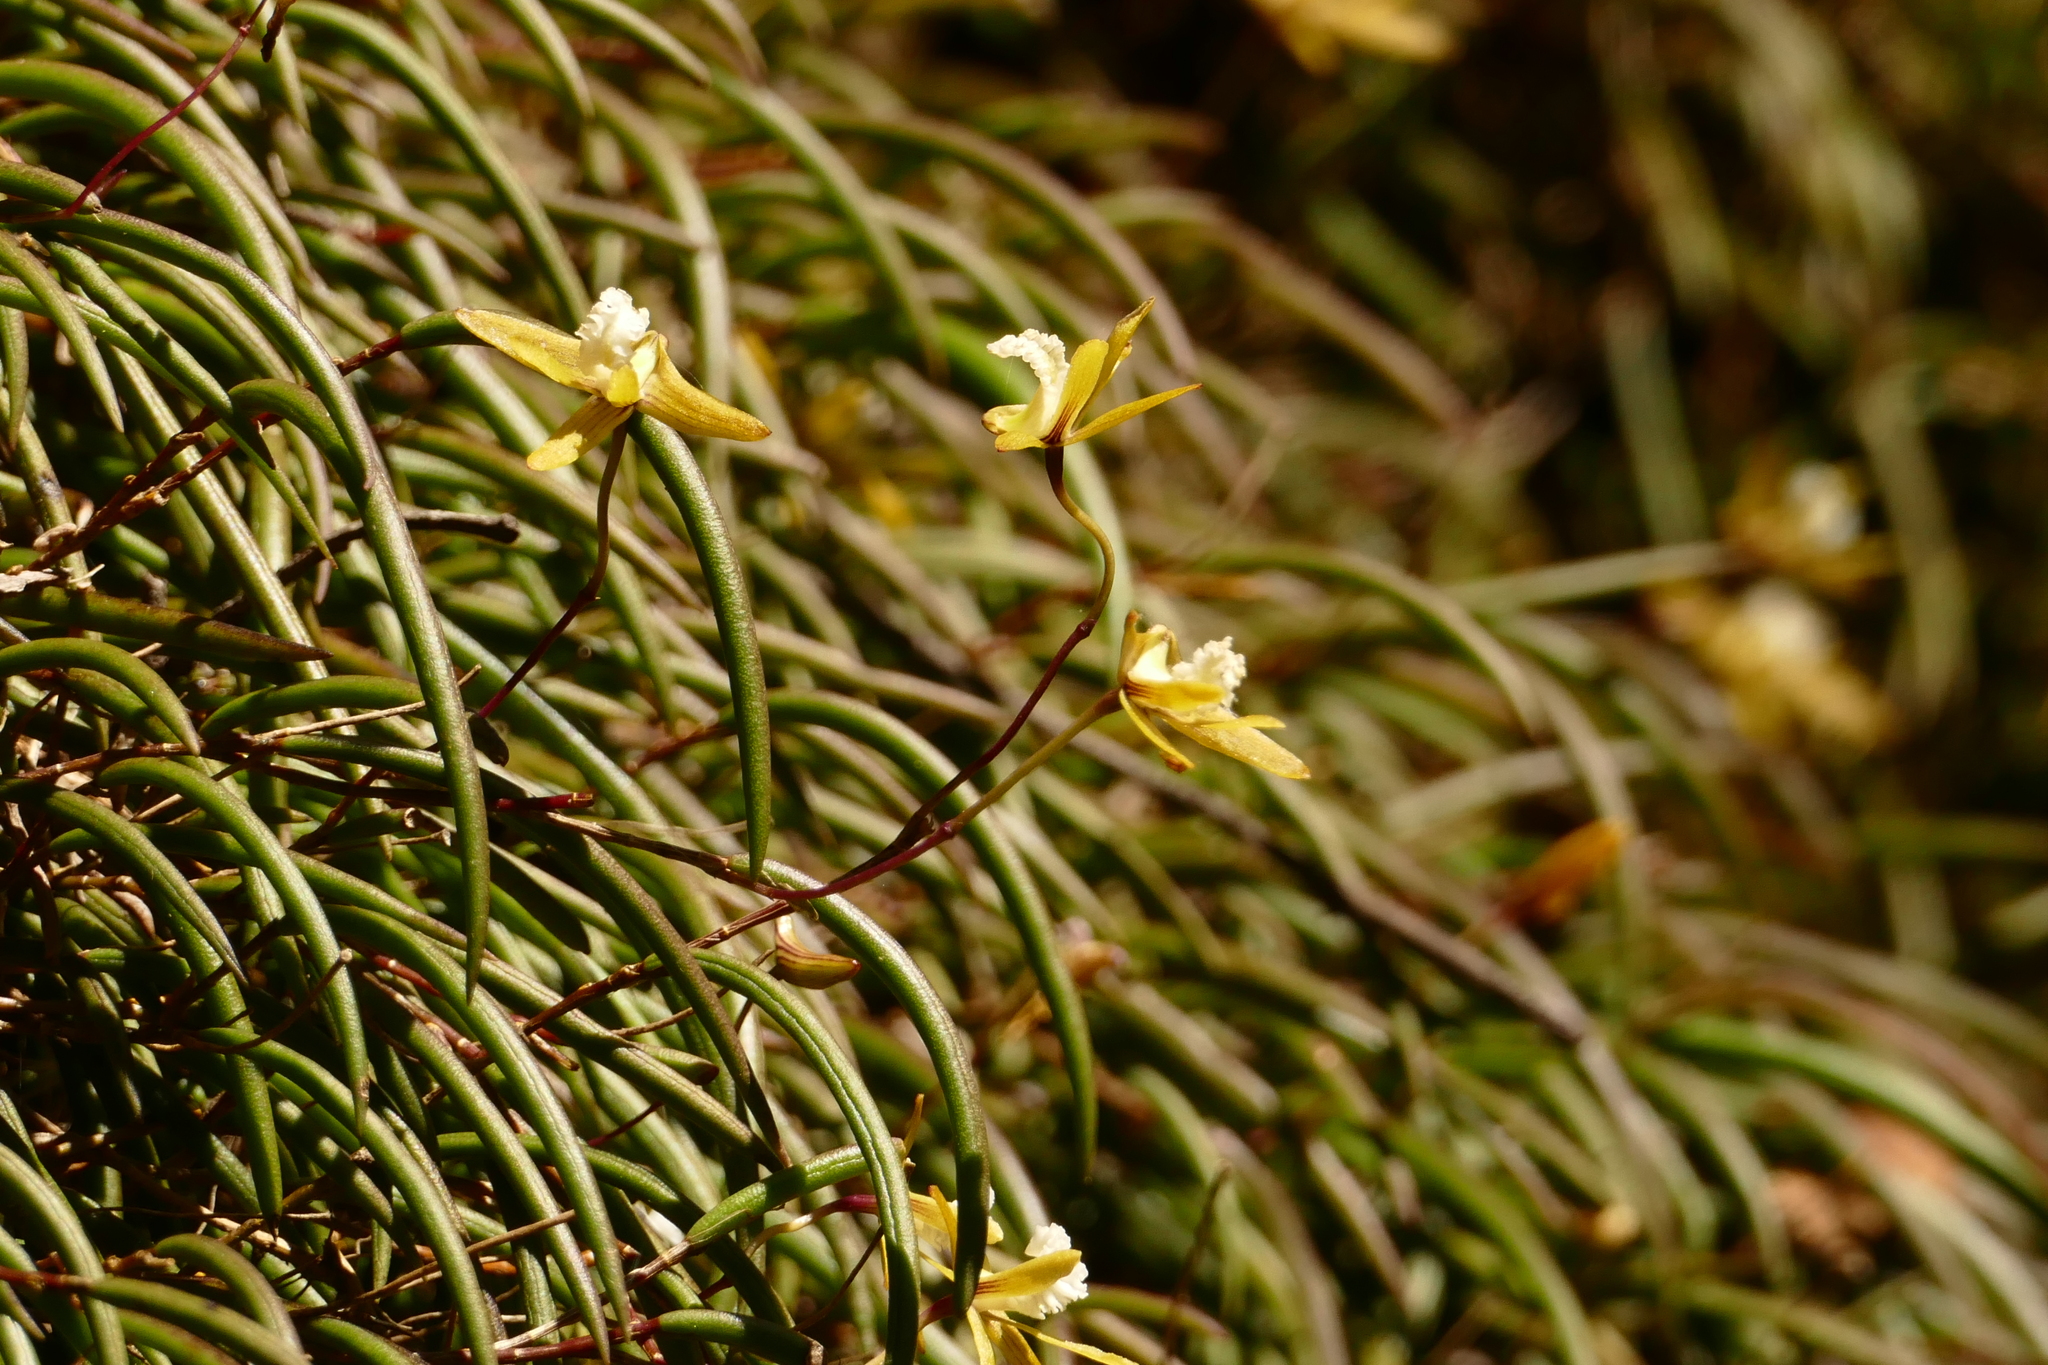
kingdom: Plantae
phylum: Tracheophyta
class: Liliopsida
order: Asparagales
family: Orchidaceae
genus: Dendrobium
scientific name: Dendrobium striolatum
